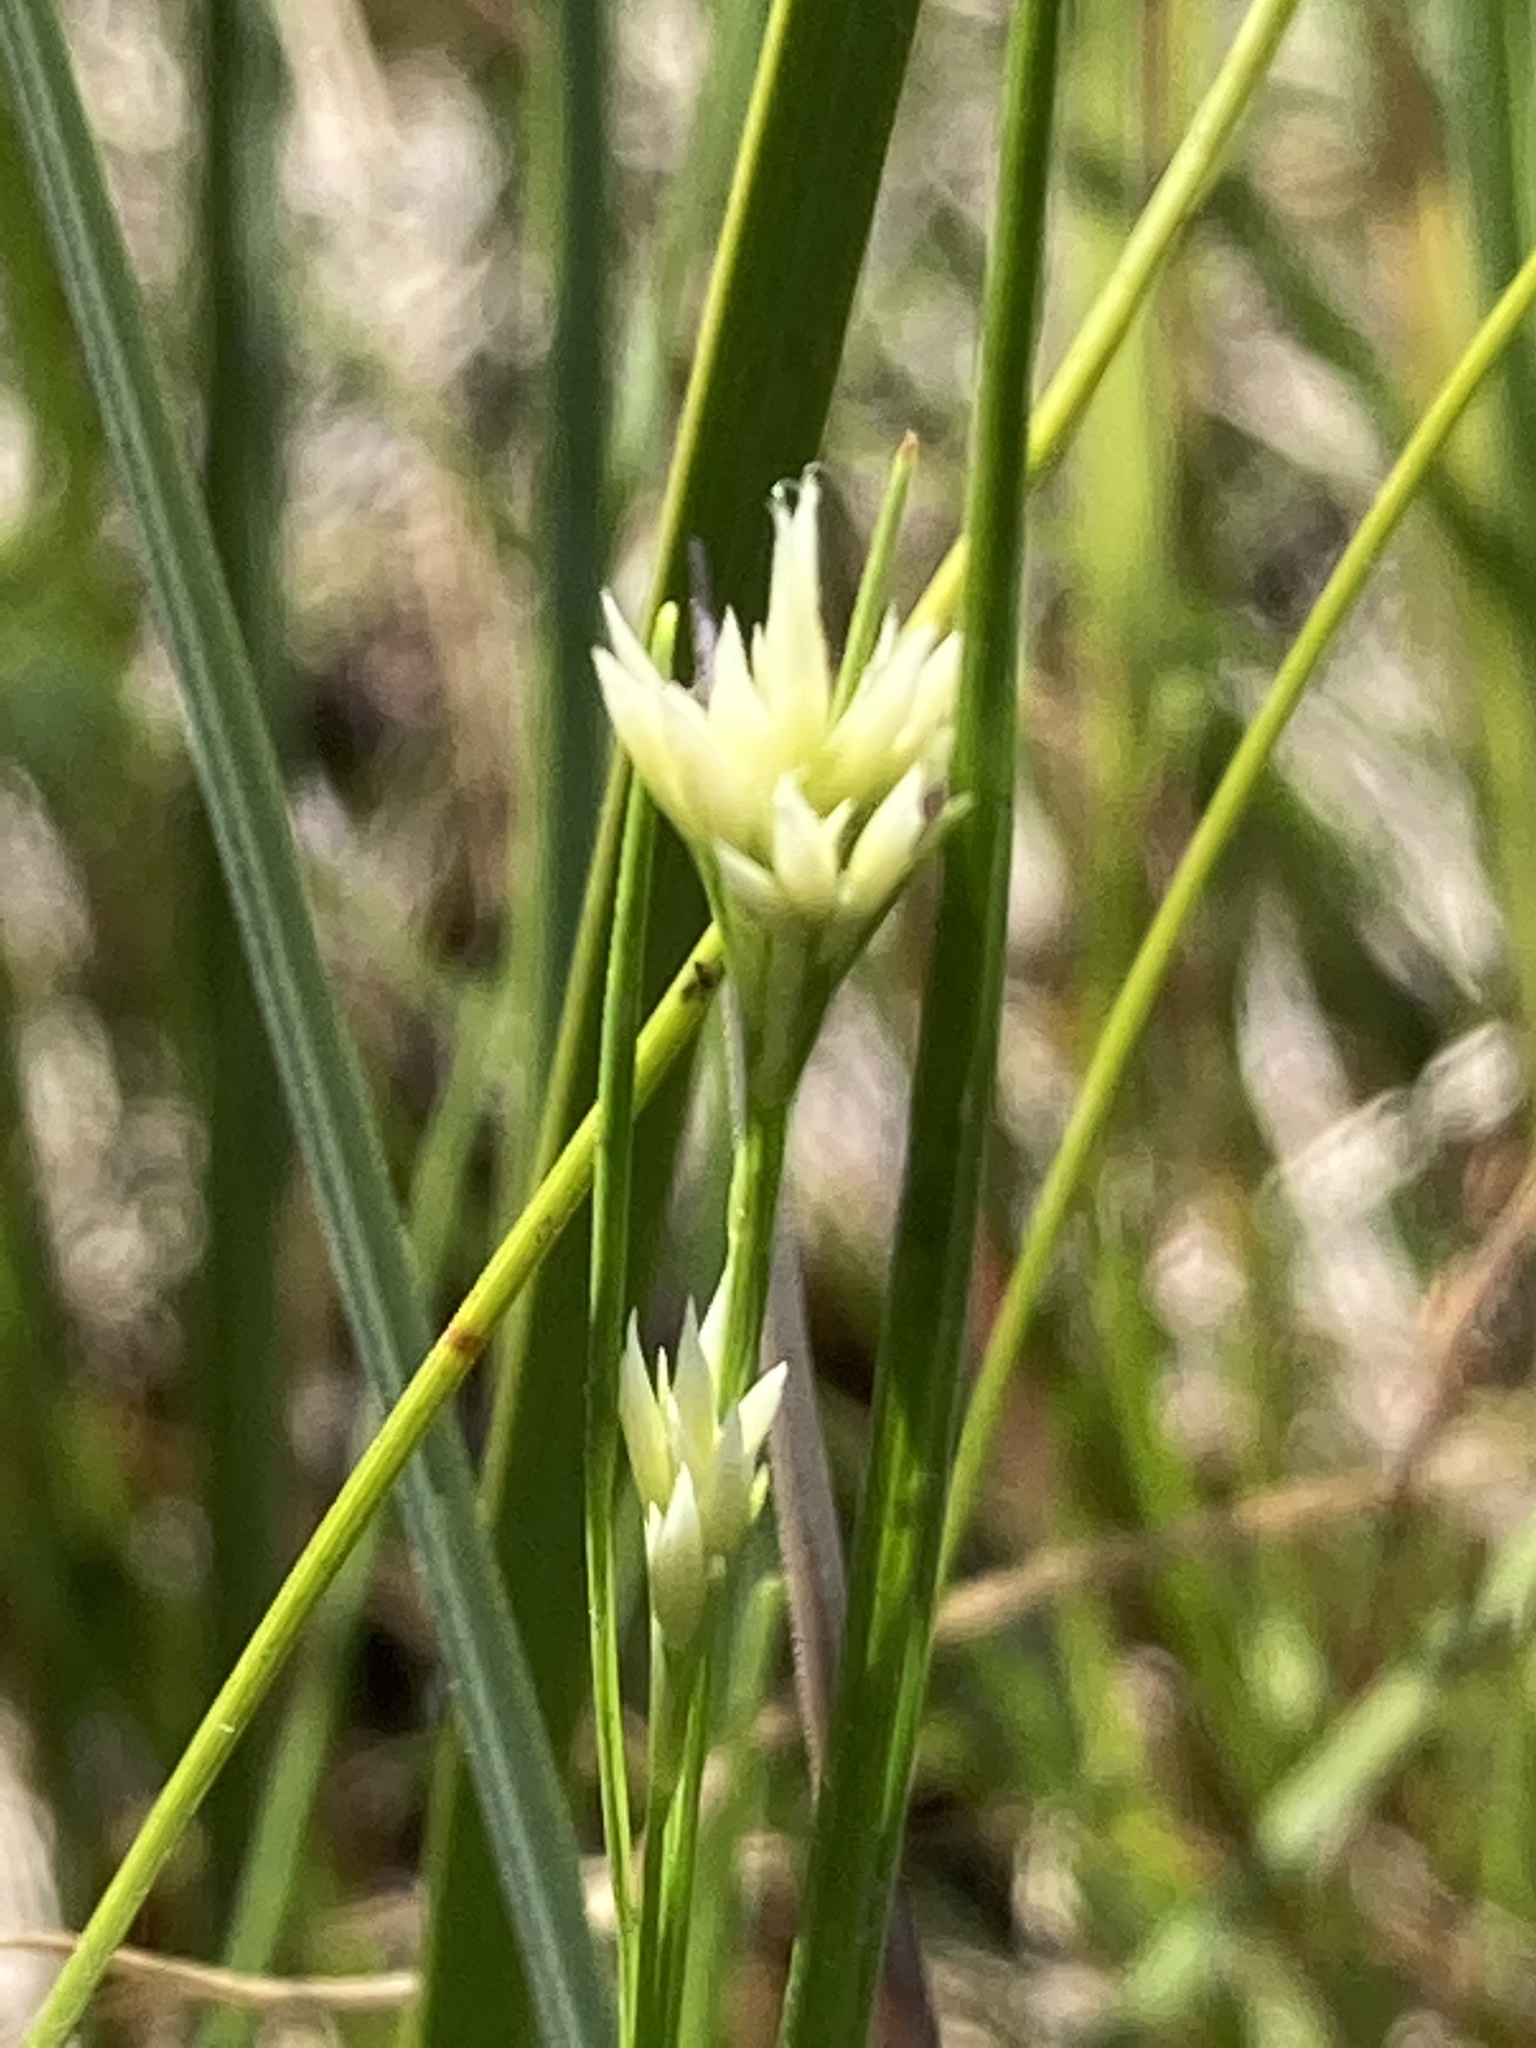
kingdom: Plantae
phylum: Tracheophyta
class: Liliopsida
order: Poales
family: Cyperaceae
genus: Rhynchospora
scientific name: Rhynchospora alba
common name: White beak-sedge
